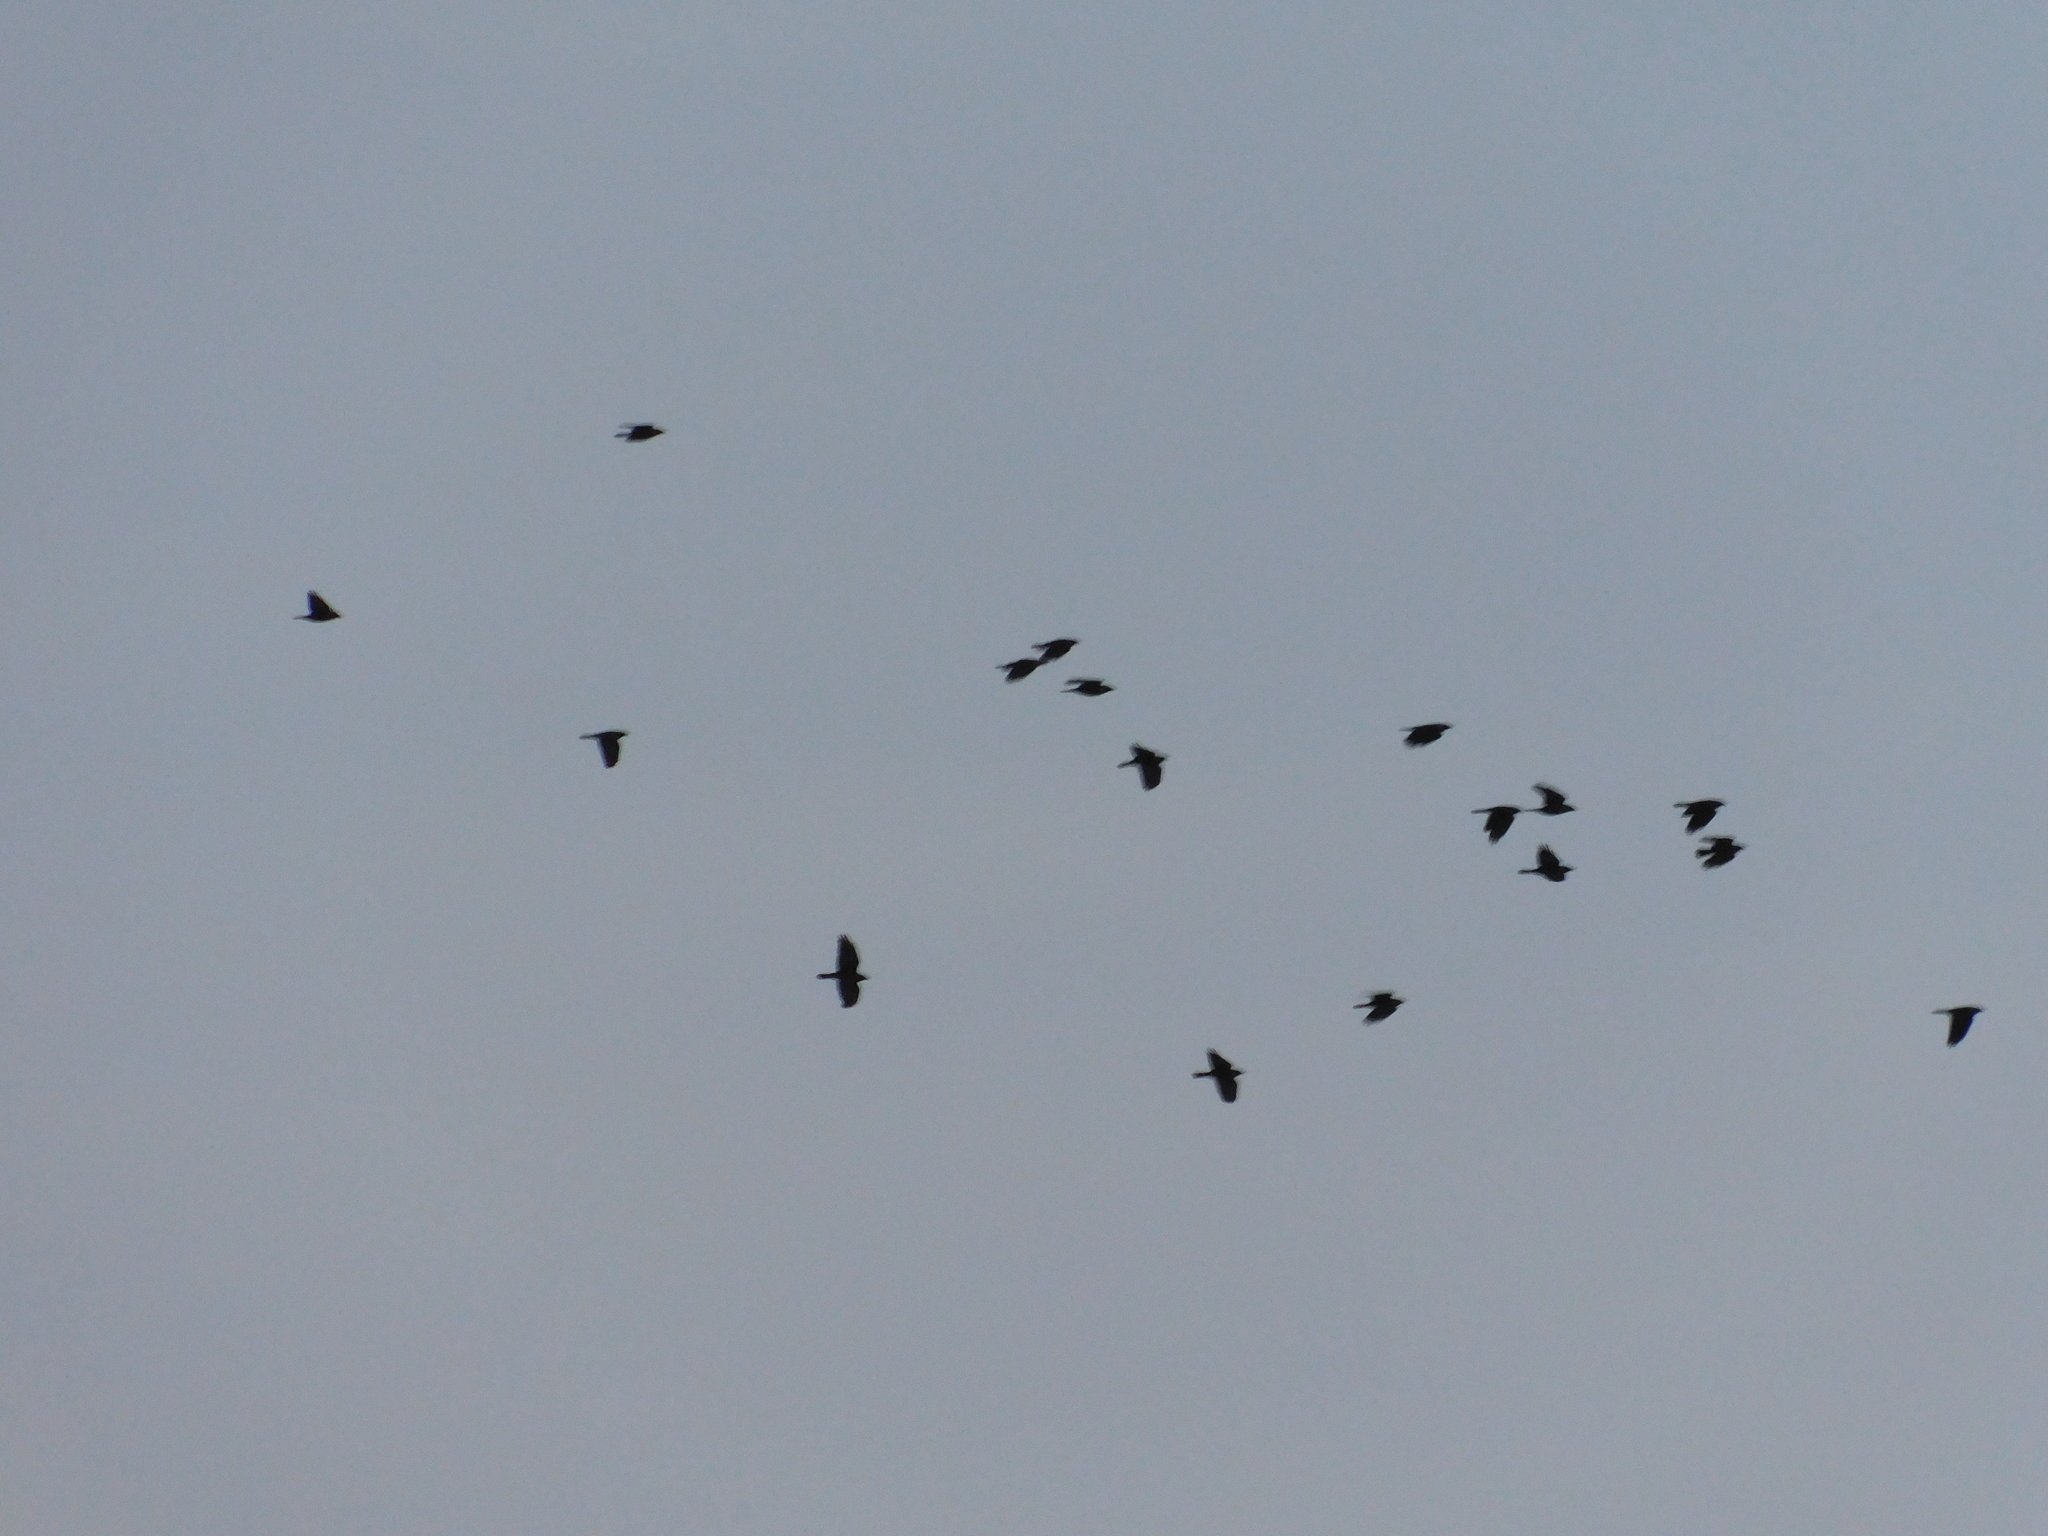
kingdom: Animalia
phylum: Chordata
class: Aves
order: Passeriformes
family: Corvidae
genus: Coloeus
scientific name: Coloeus monedula
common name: Western jackdaw
